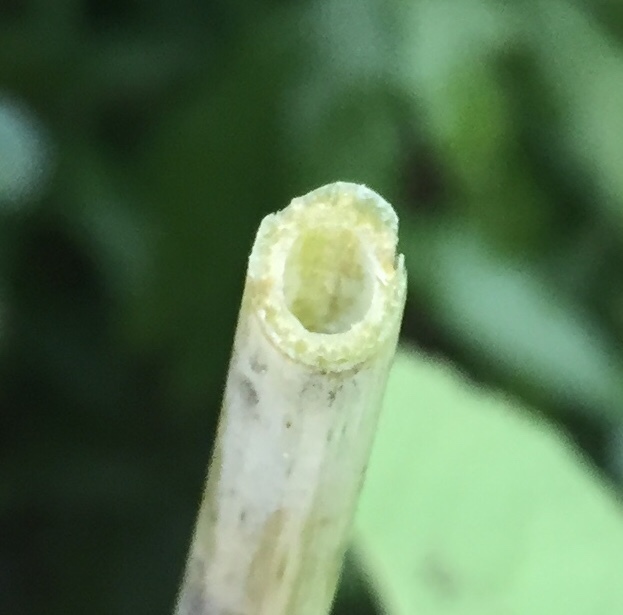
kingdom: Plantae
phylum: Tracheophyta
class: Magnoliopsida
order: Asterales
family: Asteraceae
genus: Eutrochium
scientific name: Eutrochium fistulosum
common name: Trumpetweed
